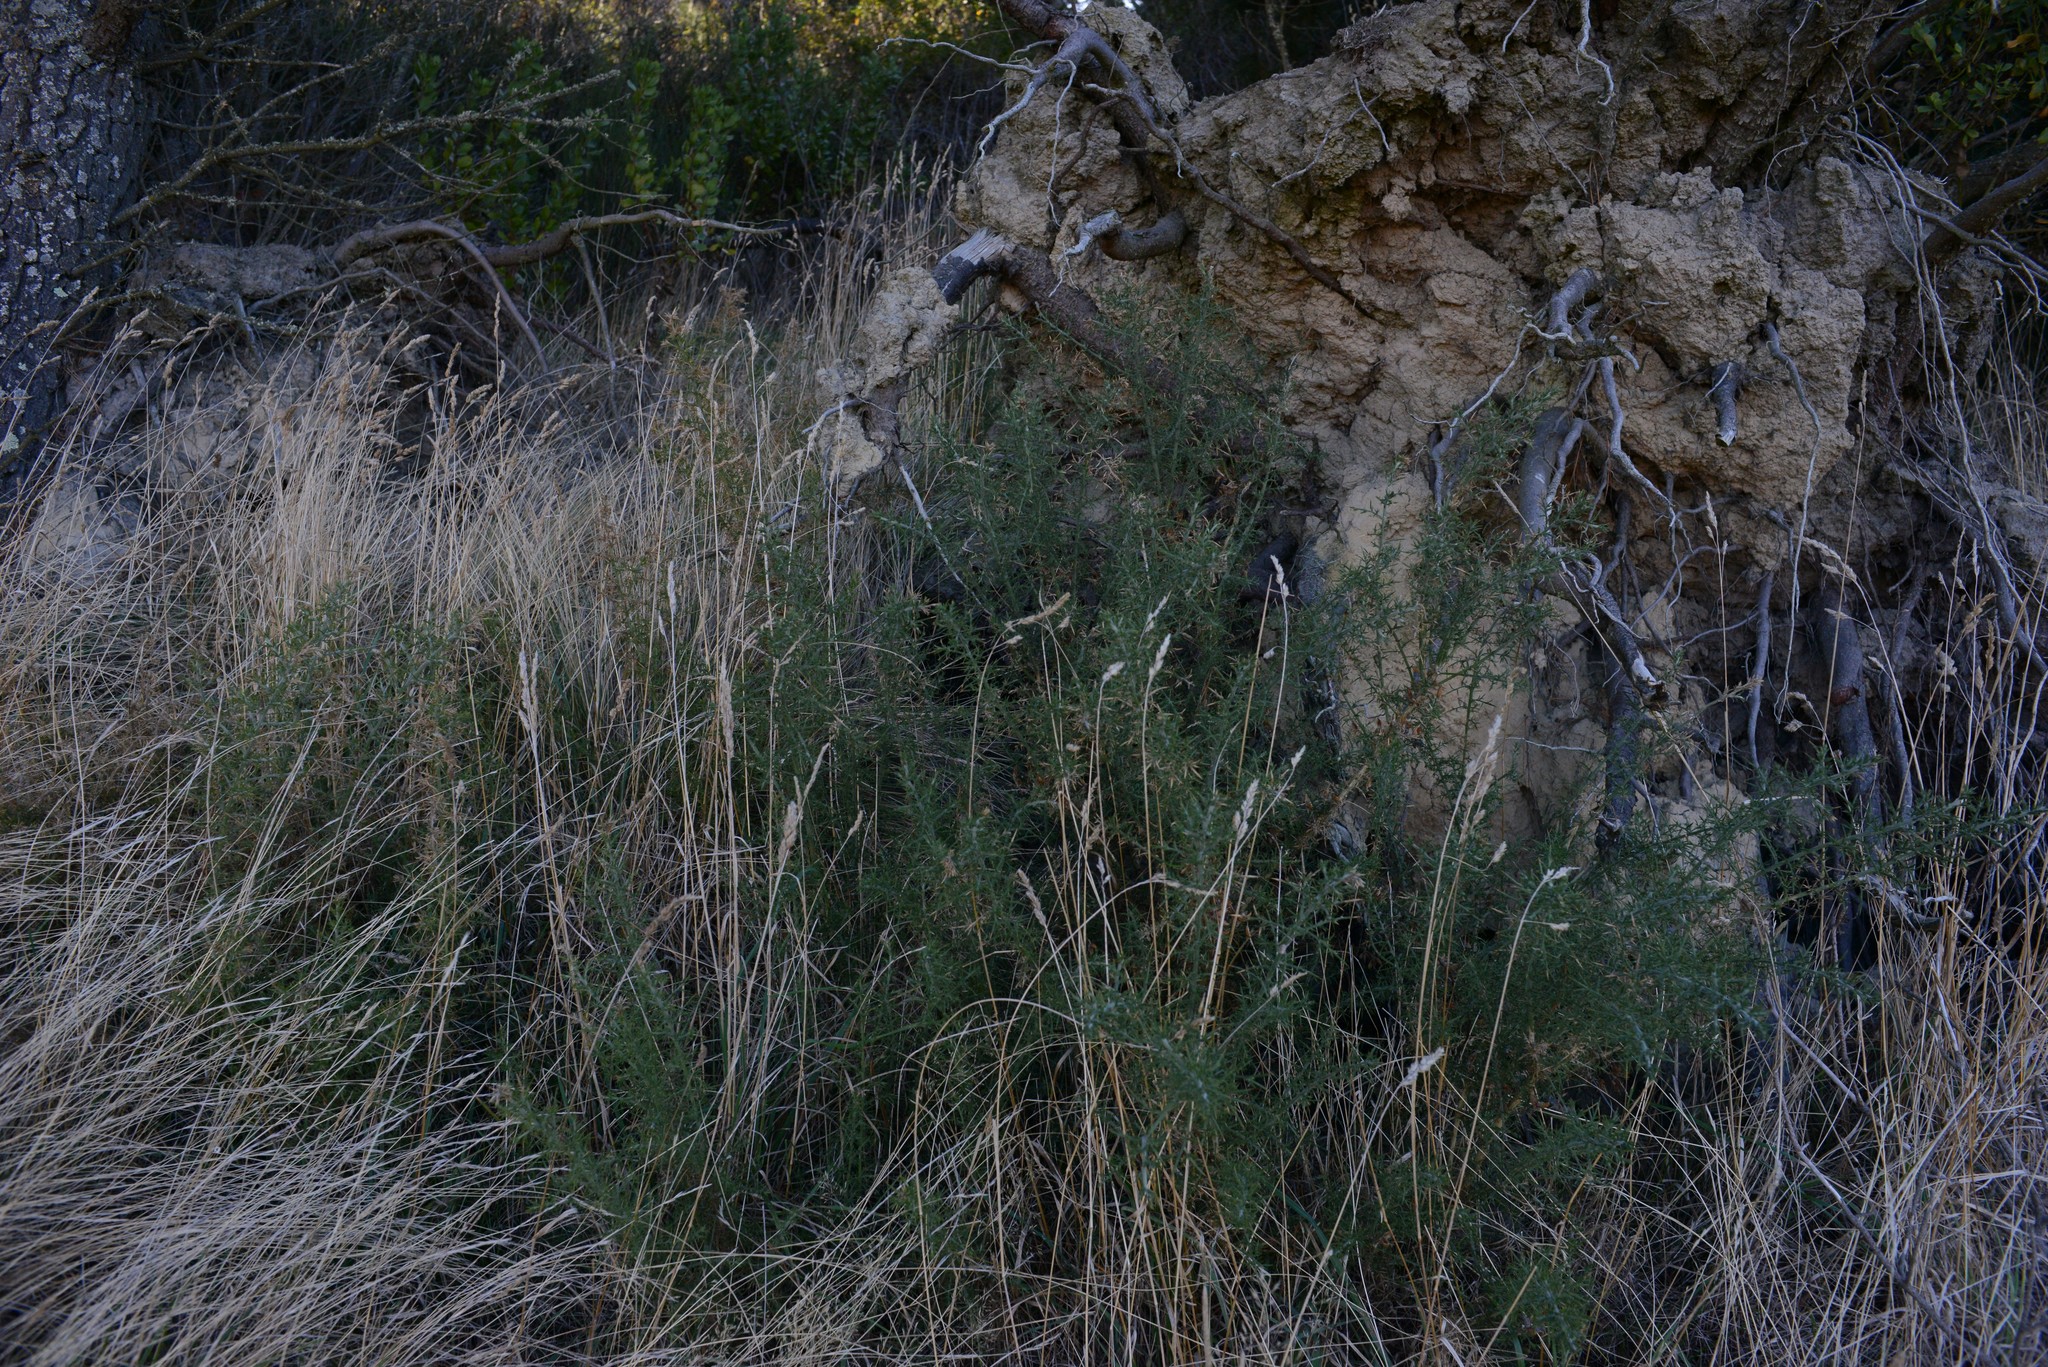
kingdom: Plantae
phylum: Tracheophyta
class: Magnoliopsida
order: Fabales
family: Fabaceae
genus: Ulex
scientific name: Ulex europaeus
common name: Common gorse
